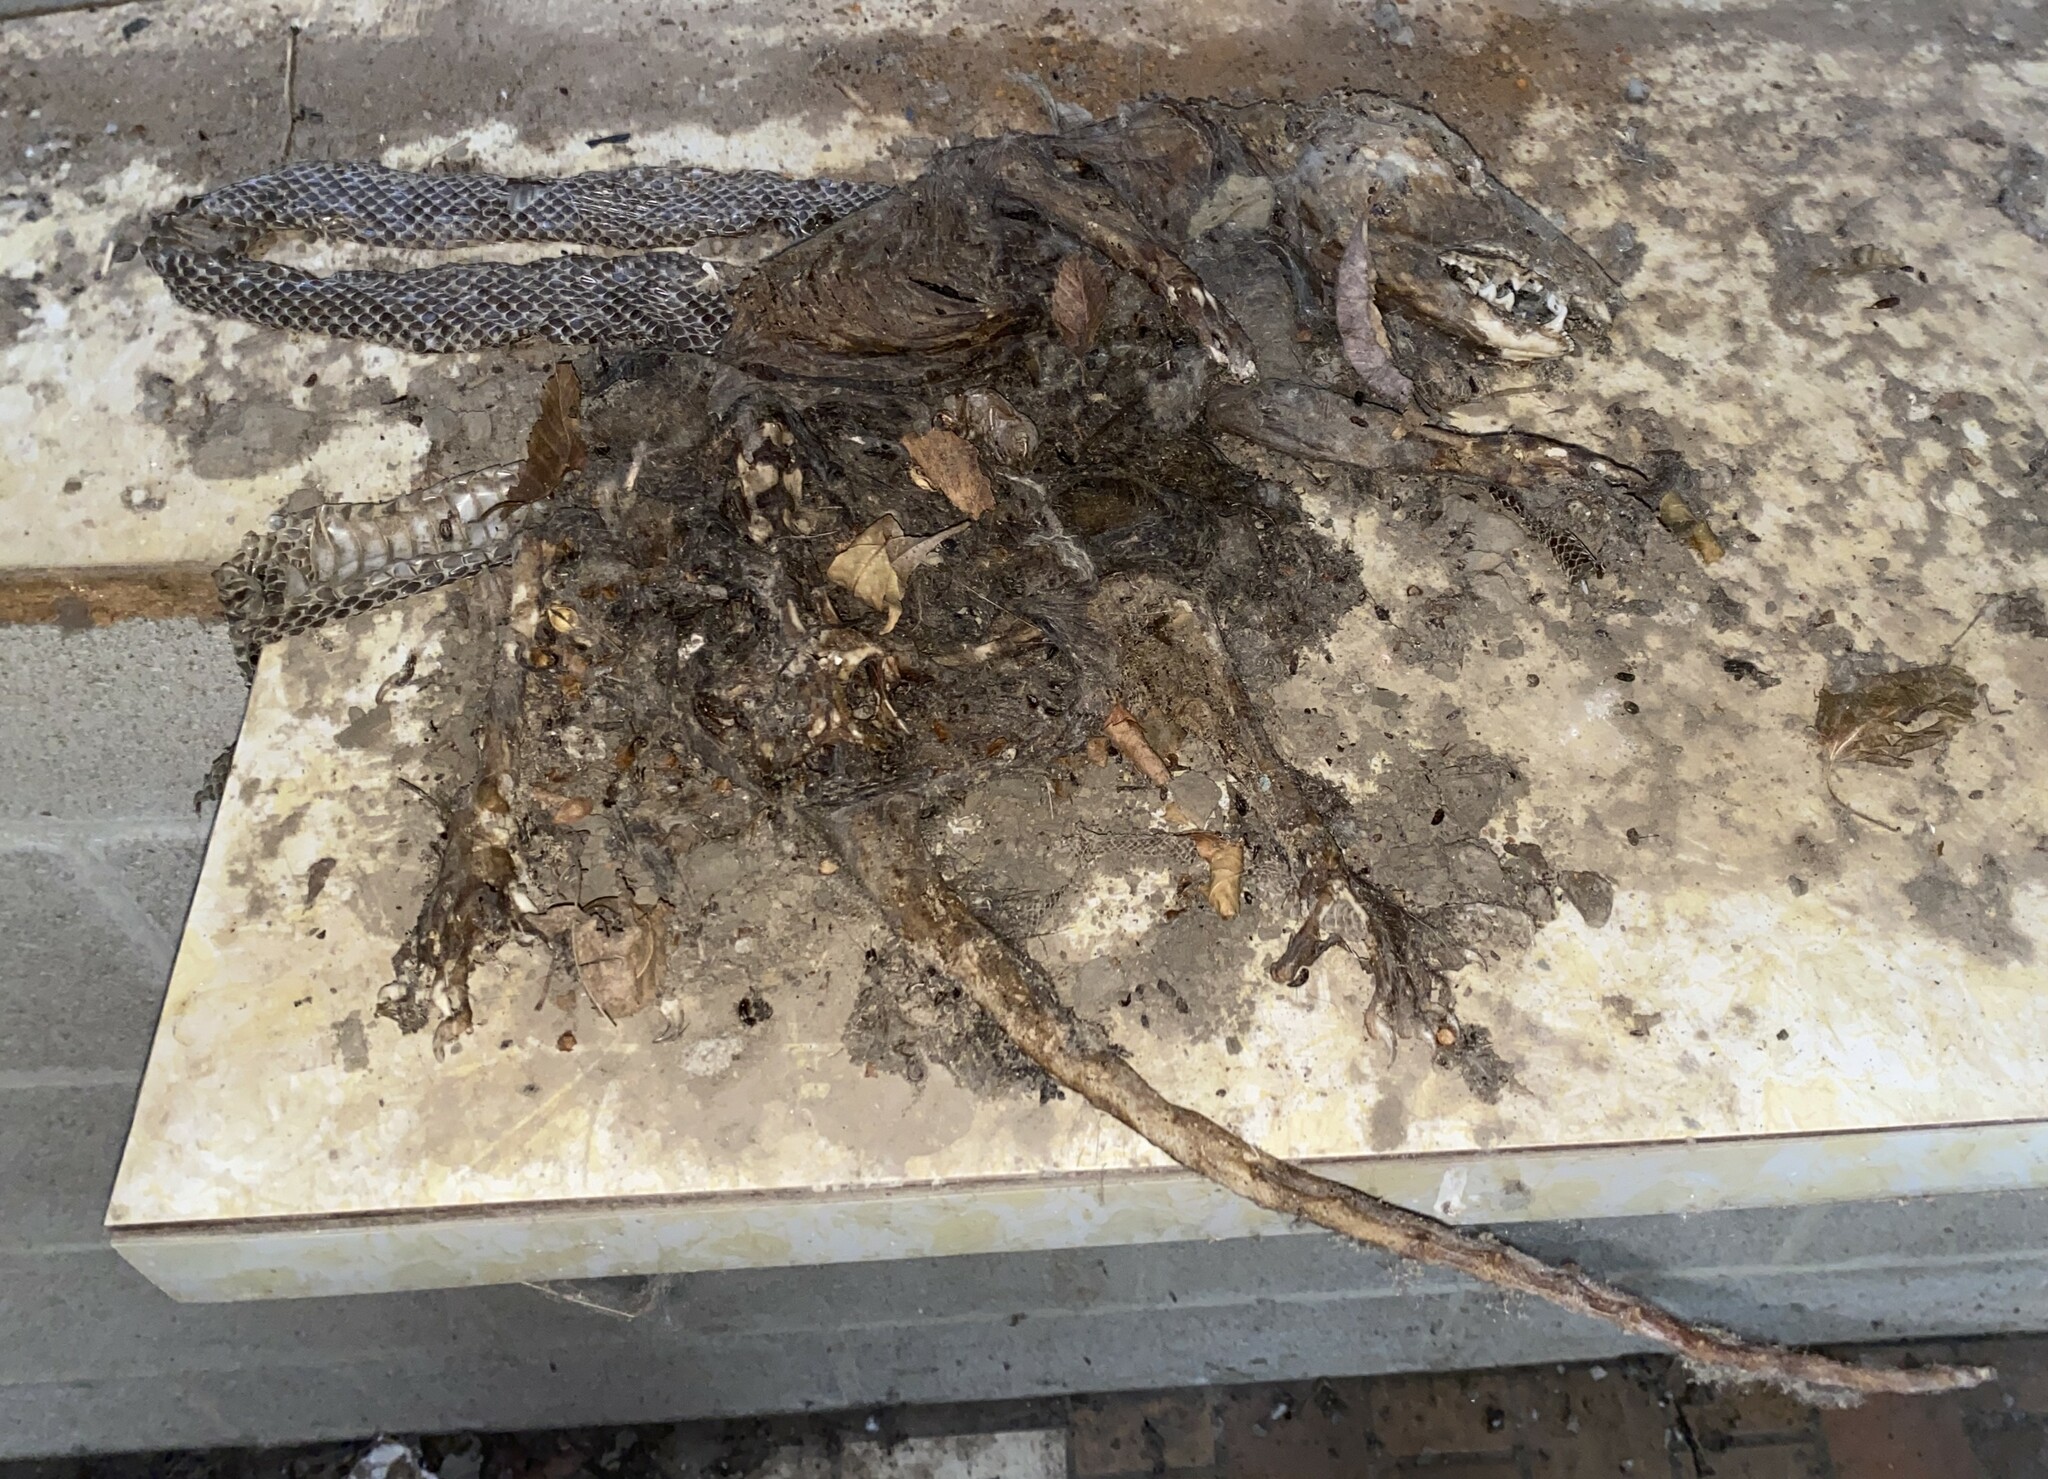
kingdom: Animalia
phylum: Chordata
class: Mammalia
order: Didelphimorphia
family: Didelphidae
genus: Didelphis
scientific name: Didelphis virginiana
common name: Virginia opossum
